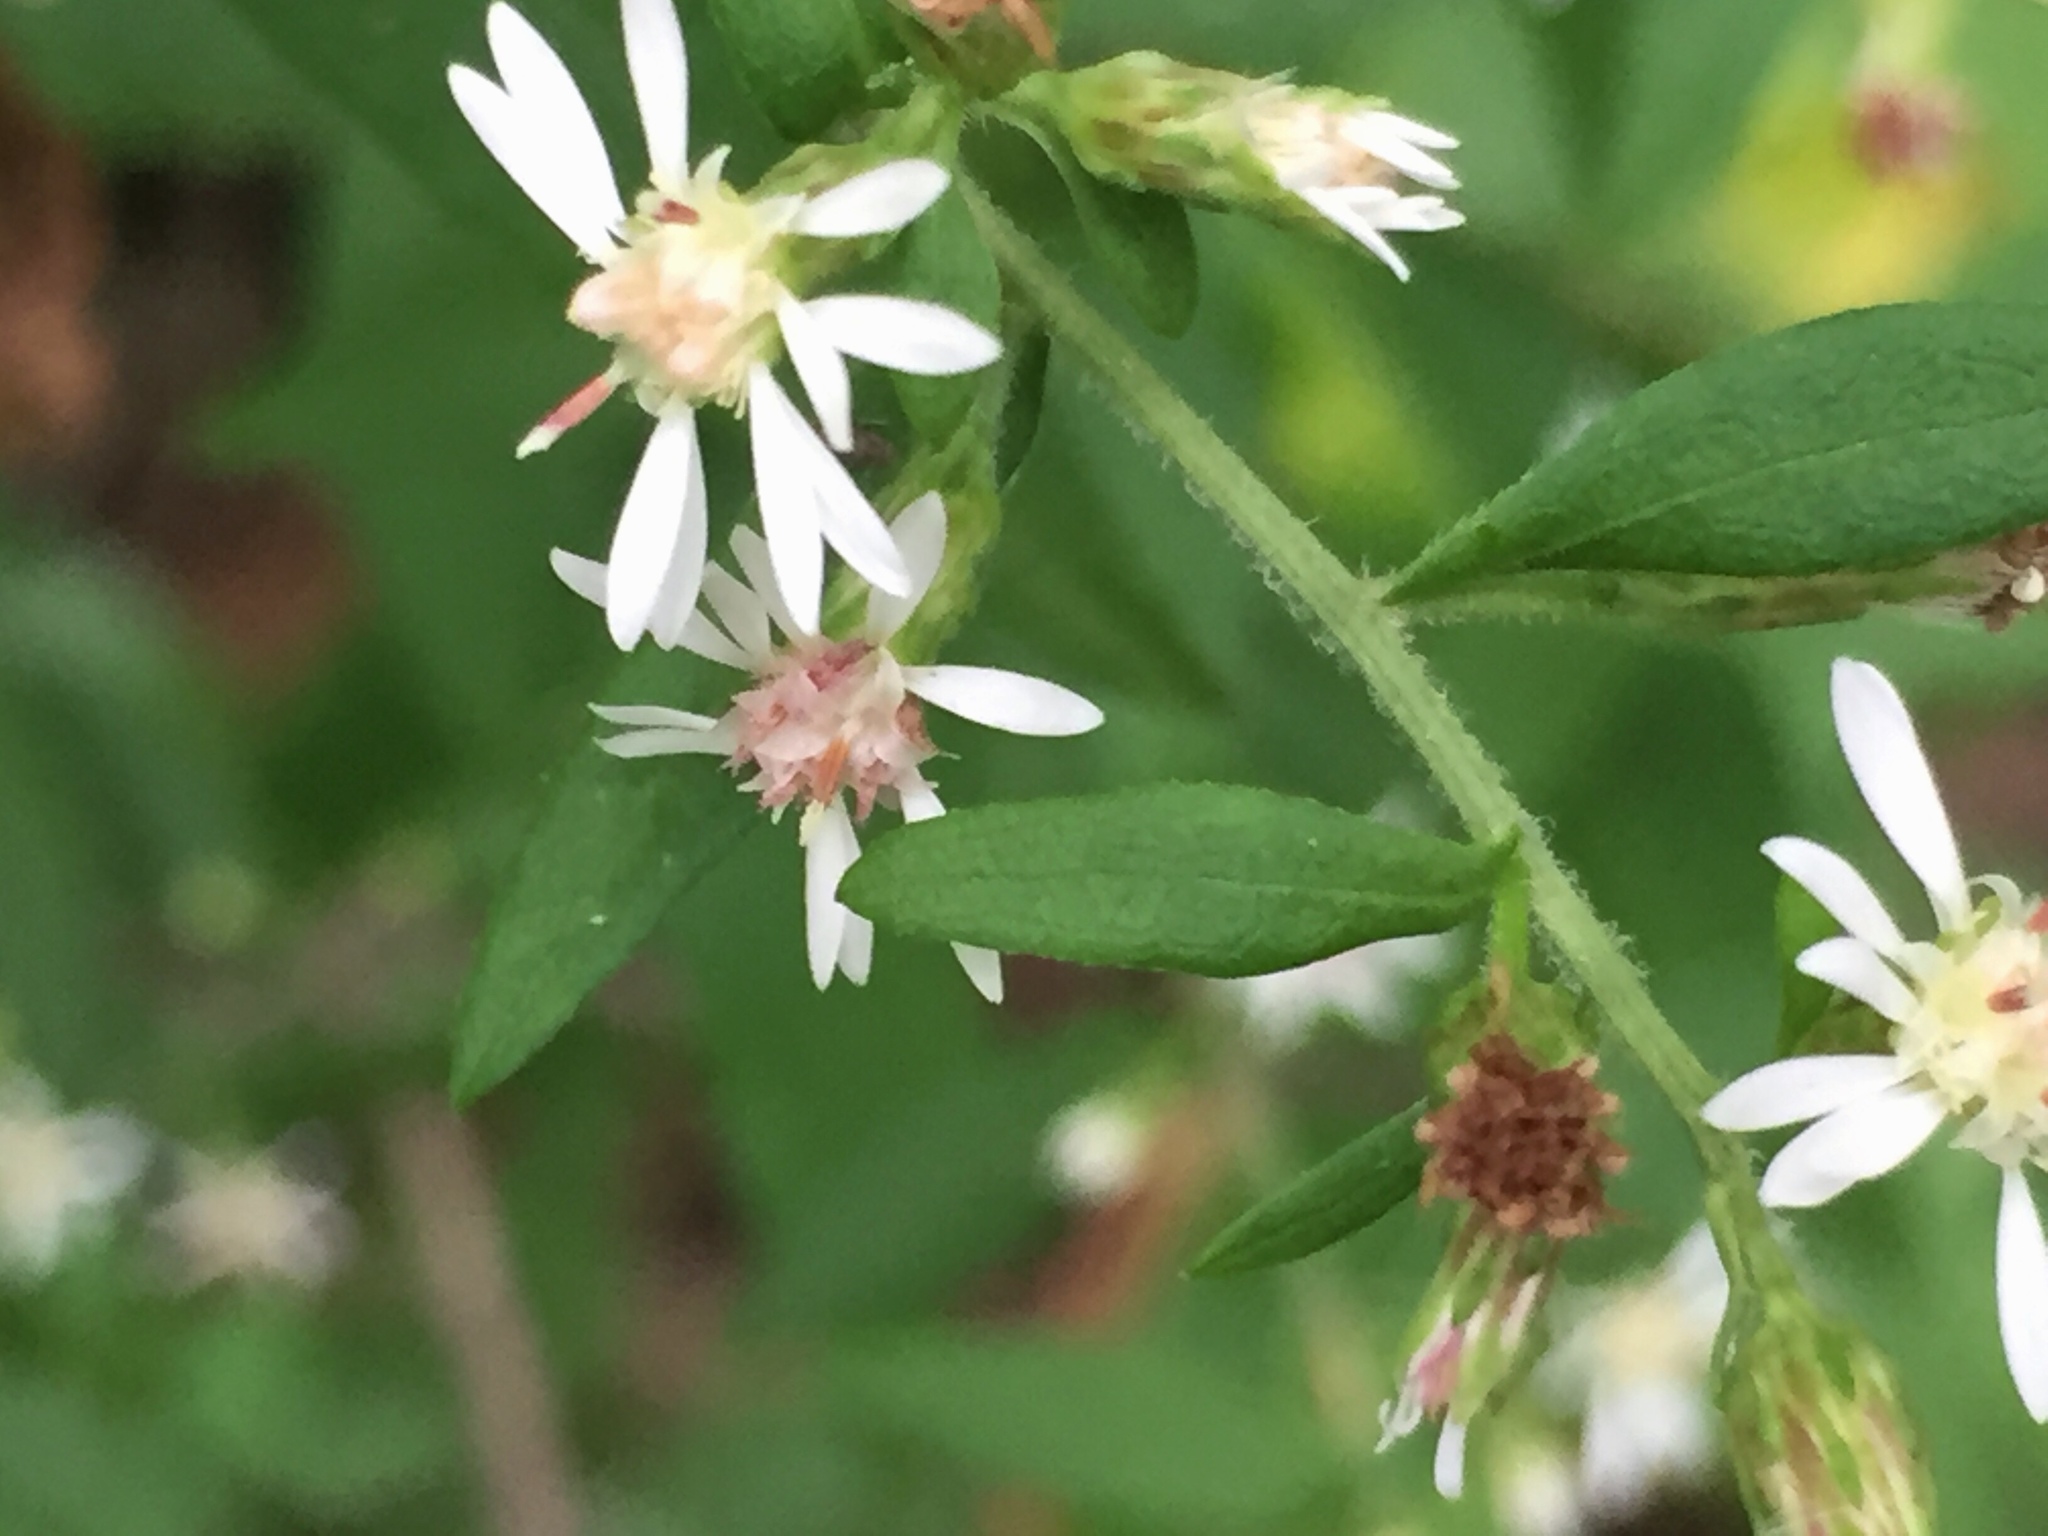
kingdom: Plantae
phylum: Tracheophyta
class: Magnoliopsida
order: Asterales
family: Asteraceae
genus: Symphyotrichum
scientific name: Symphyotrichum lateriflorum
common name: Calico aster
